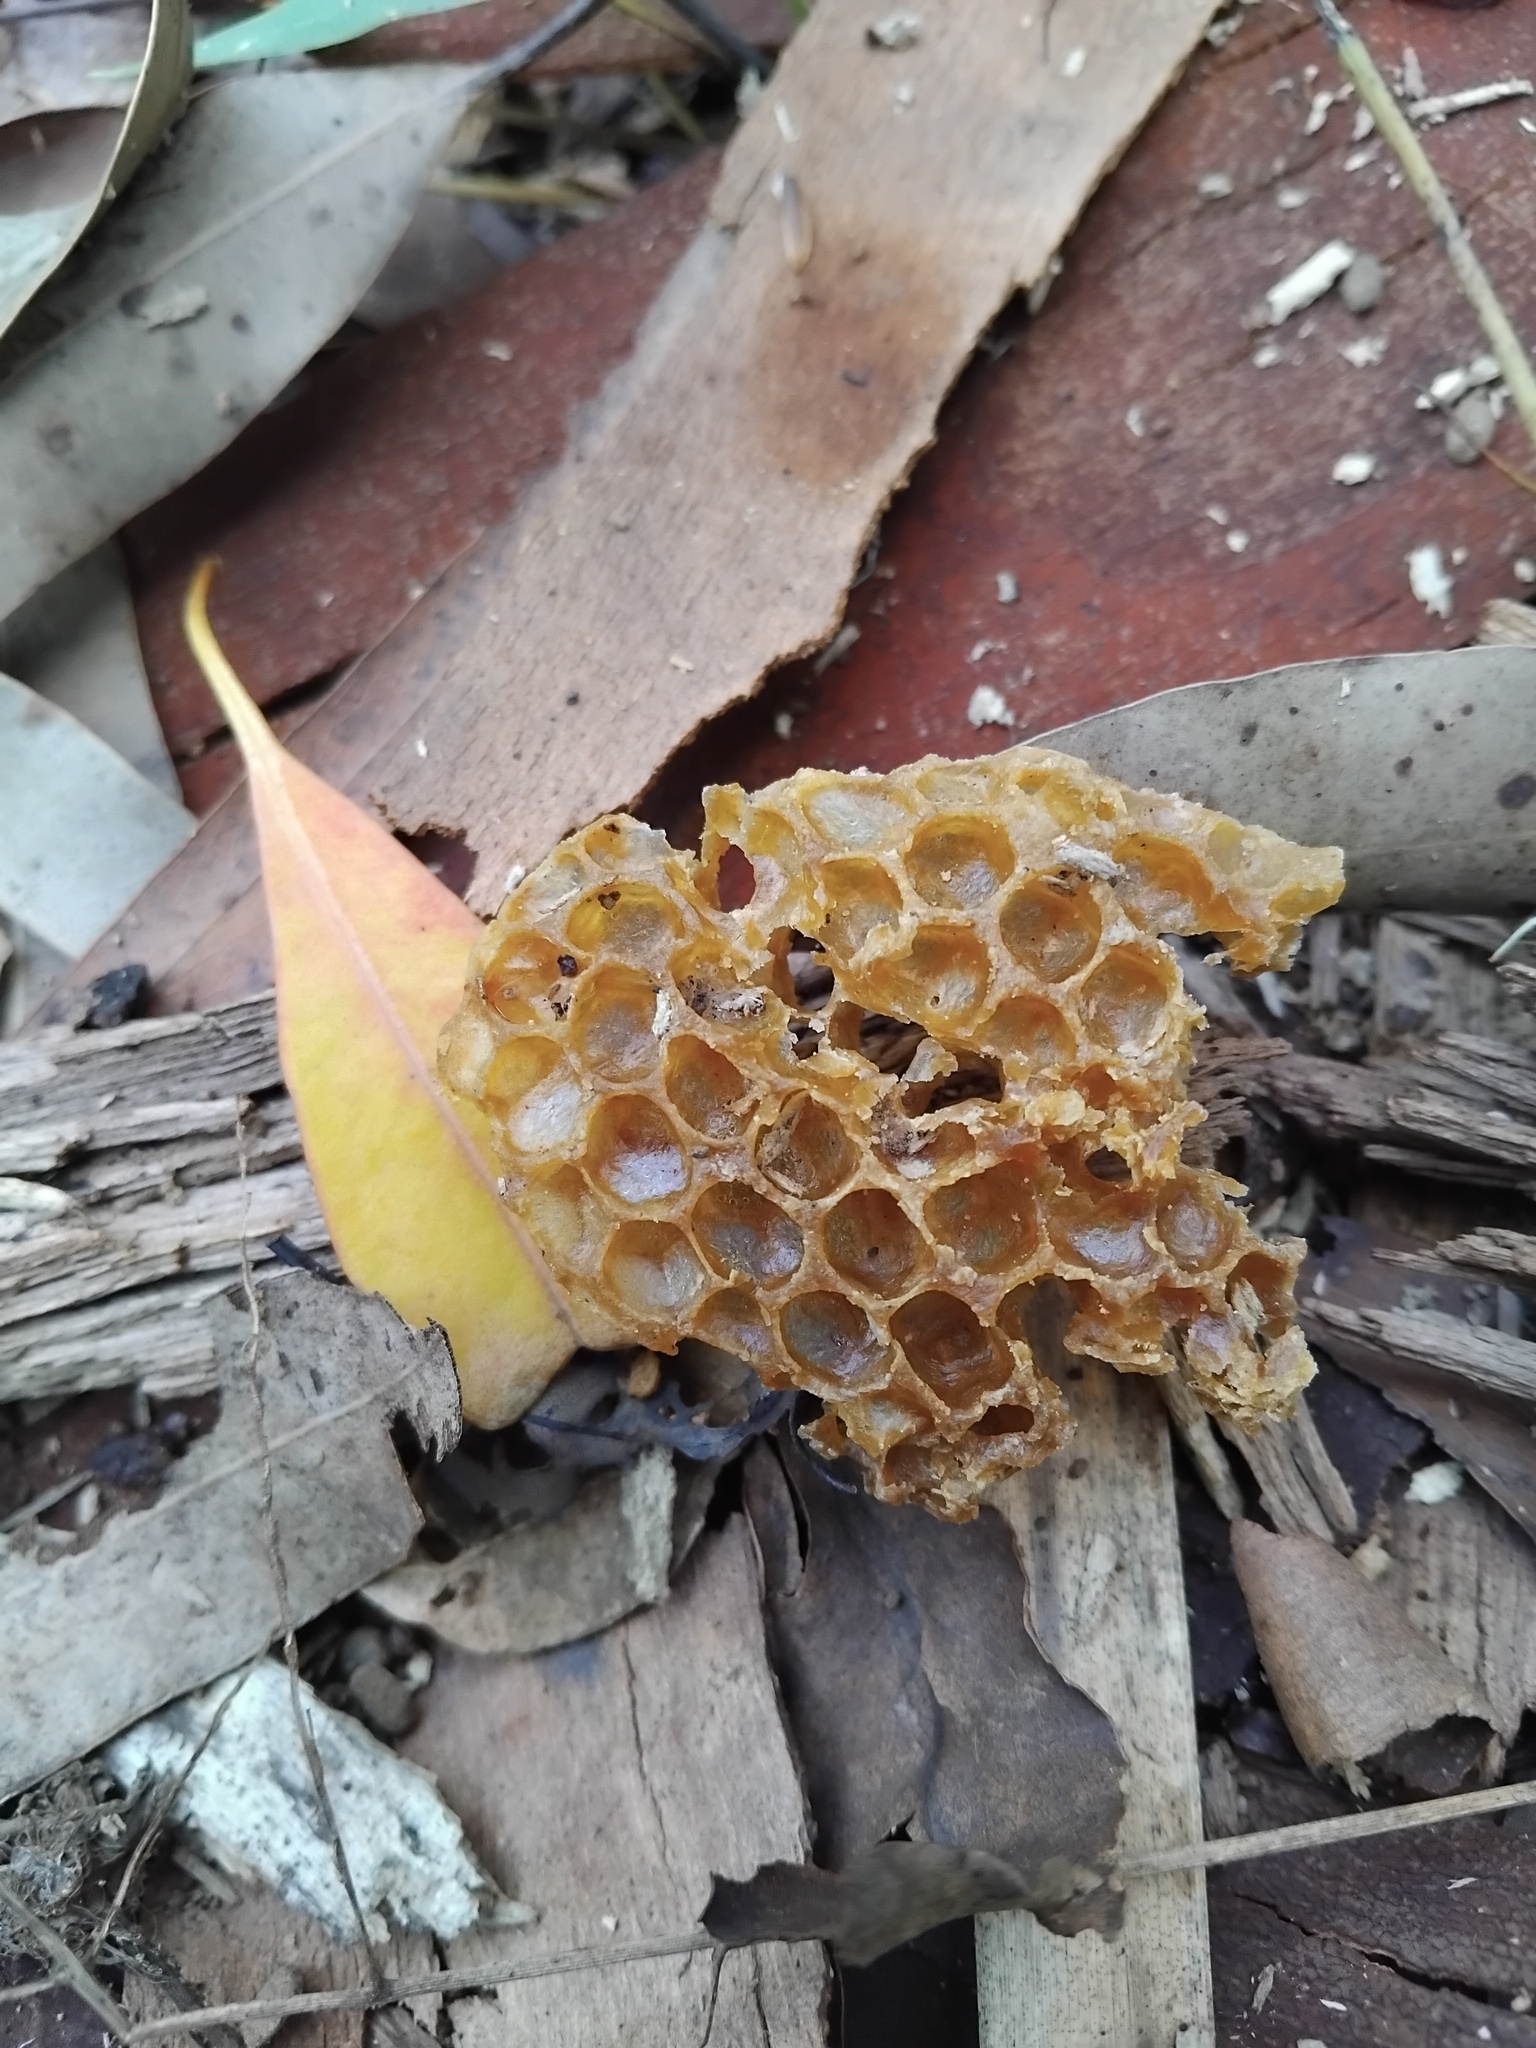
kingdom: Animalia
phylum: Arthropoda
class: Insecta
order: Hymenoptera
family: Apidae
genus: Apis
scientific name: Apis mellifera
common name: Honey bee
